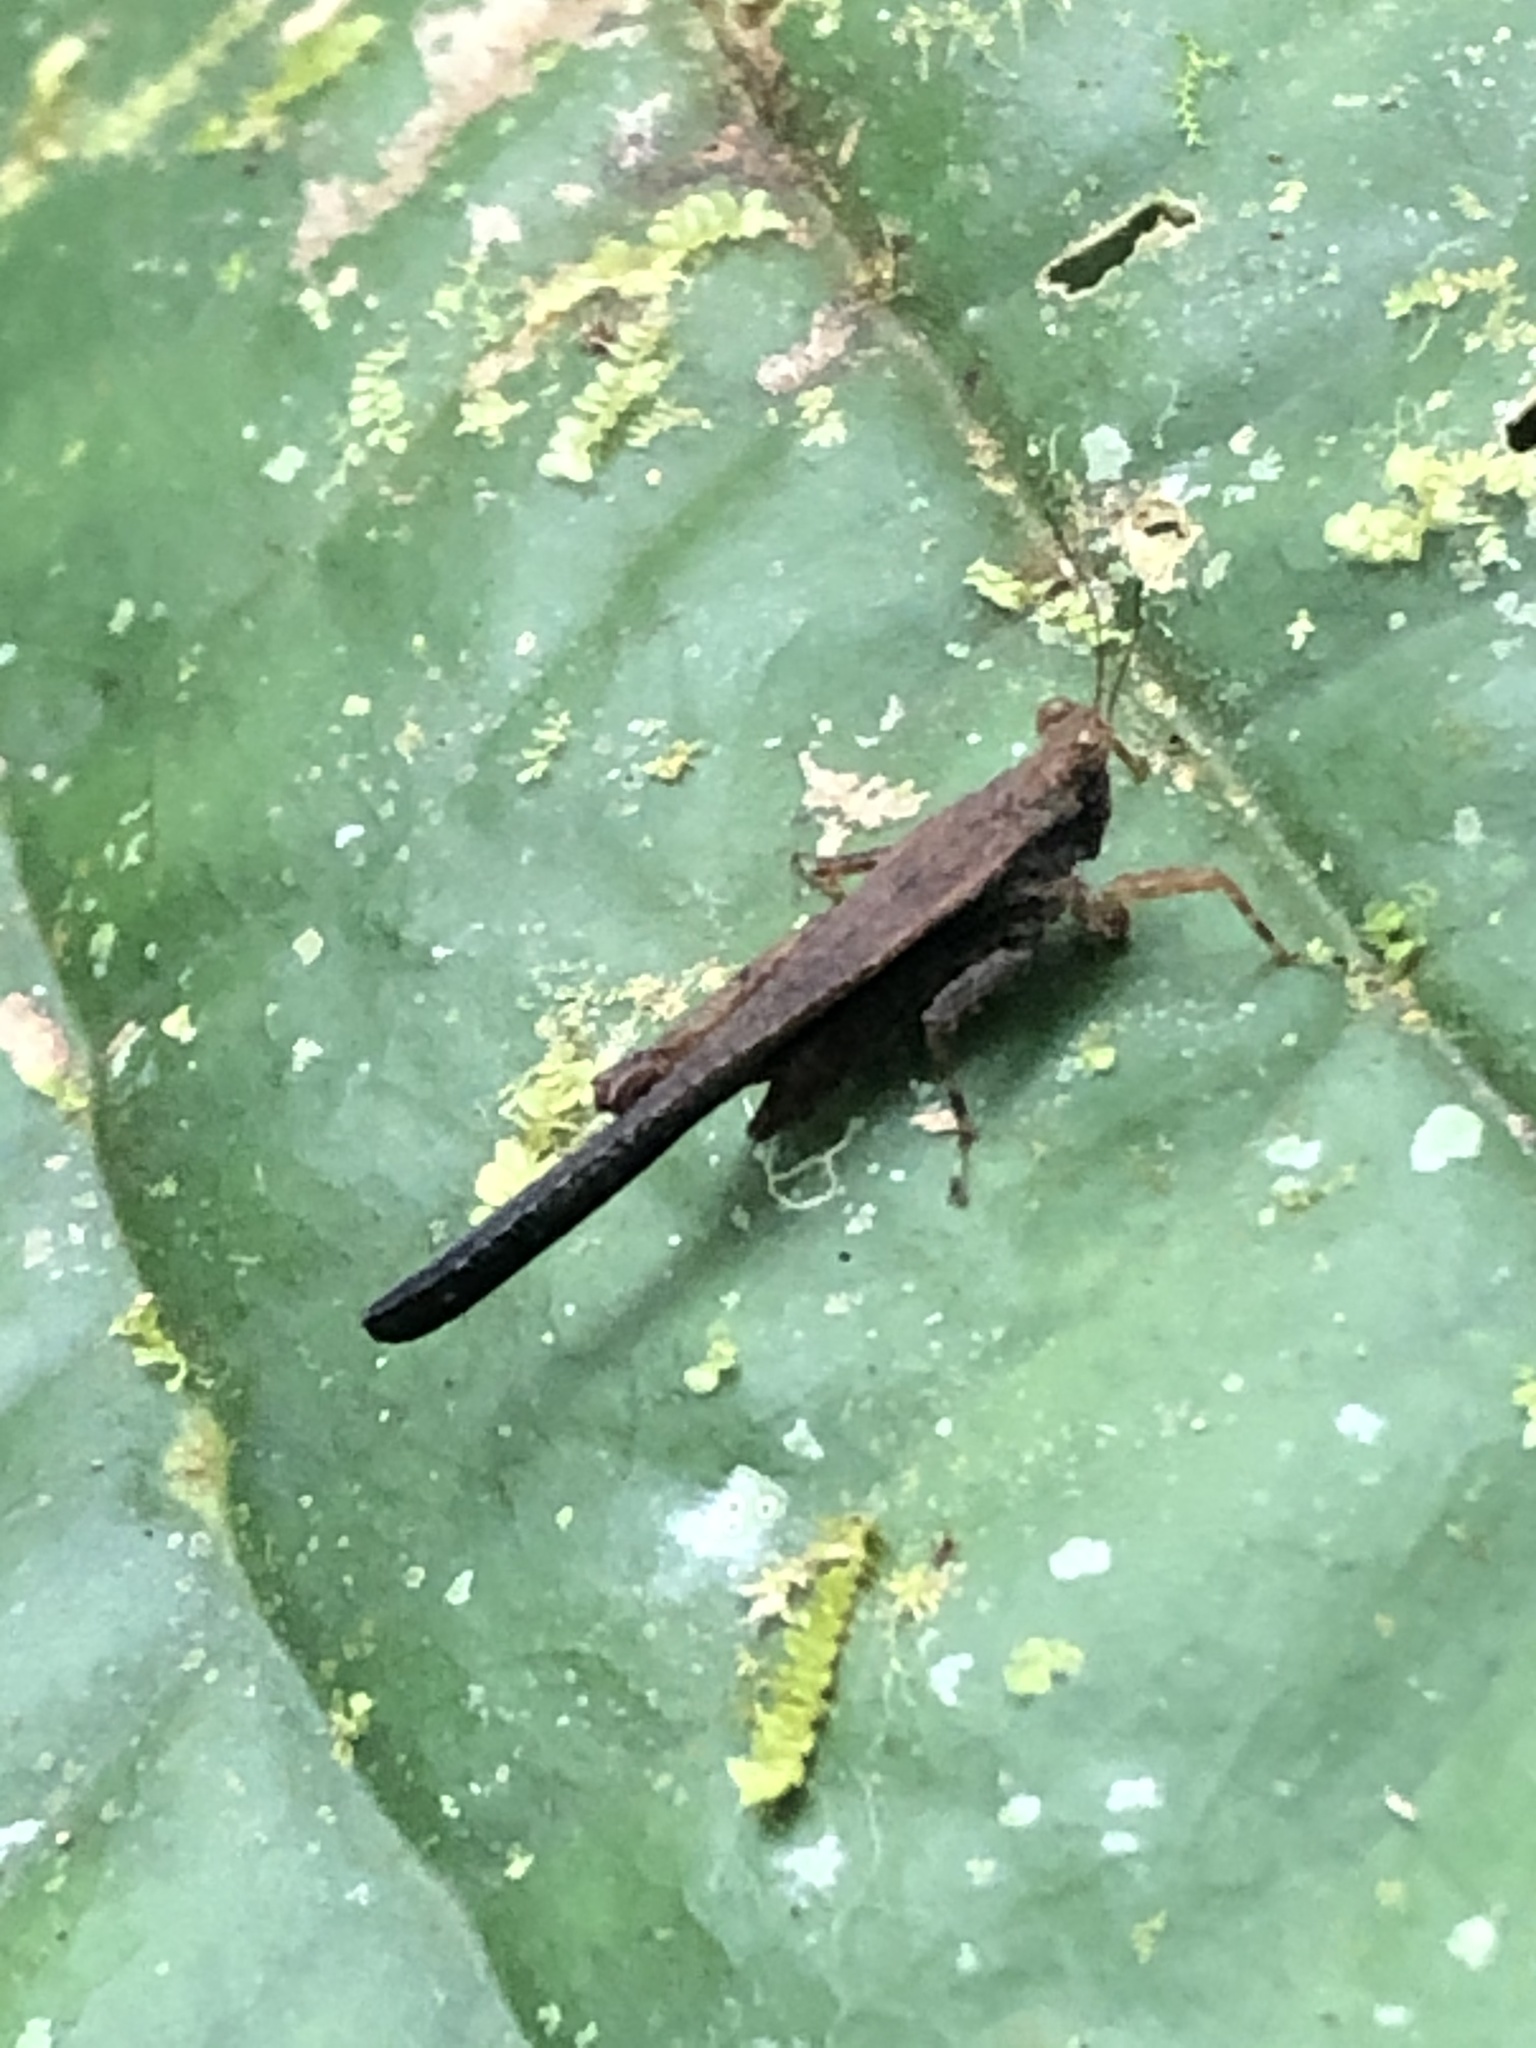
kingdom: Animalia
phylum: Arthropoda
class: Insecta
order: Orthoptera
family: Tetrigidae
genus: Stenodorsus
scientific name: Stenodorsus extenuatus
